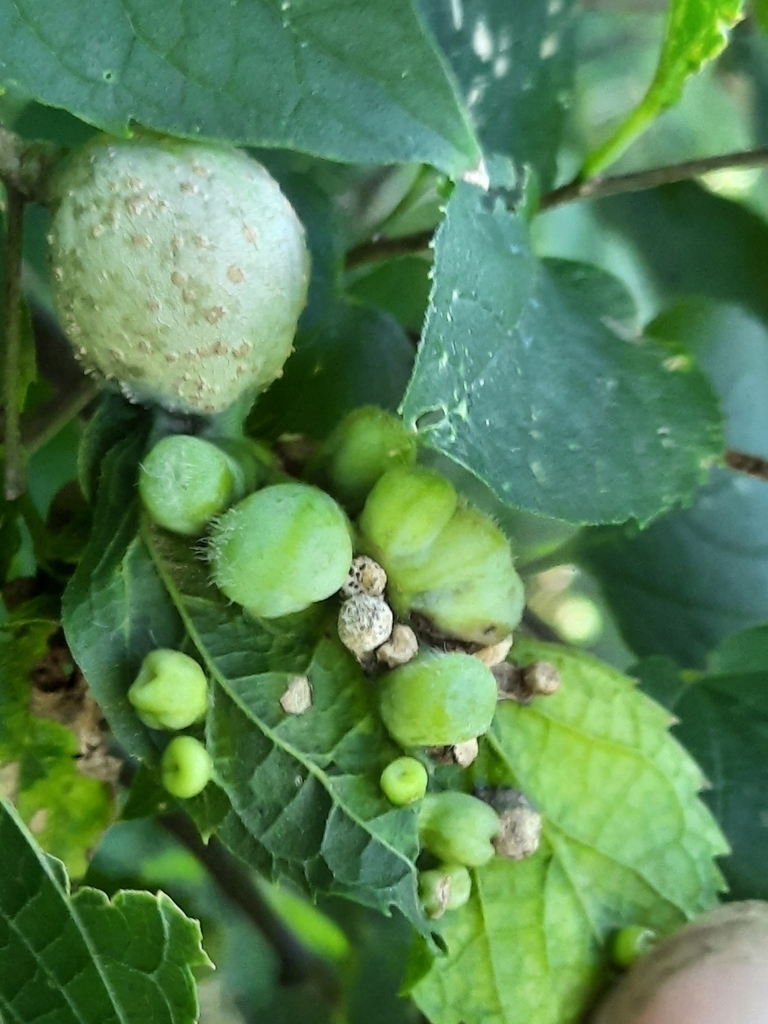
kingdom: Animalia
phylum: Arthropoda
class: Insecta
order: Hemiptera
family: Aphalaridae
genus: Pachypsylla
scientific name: Pachypsylla celtidismamma
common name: Hackberry nipplegall psyllid
